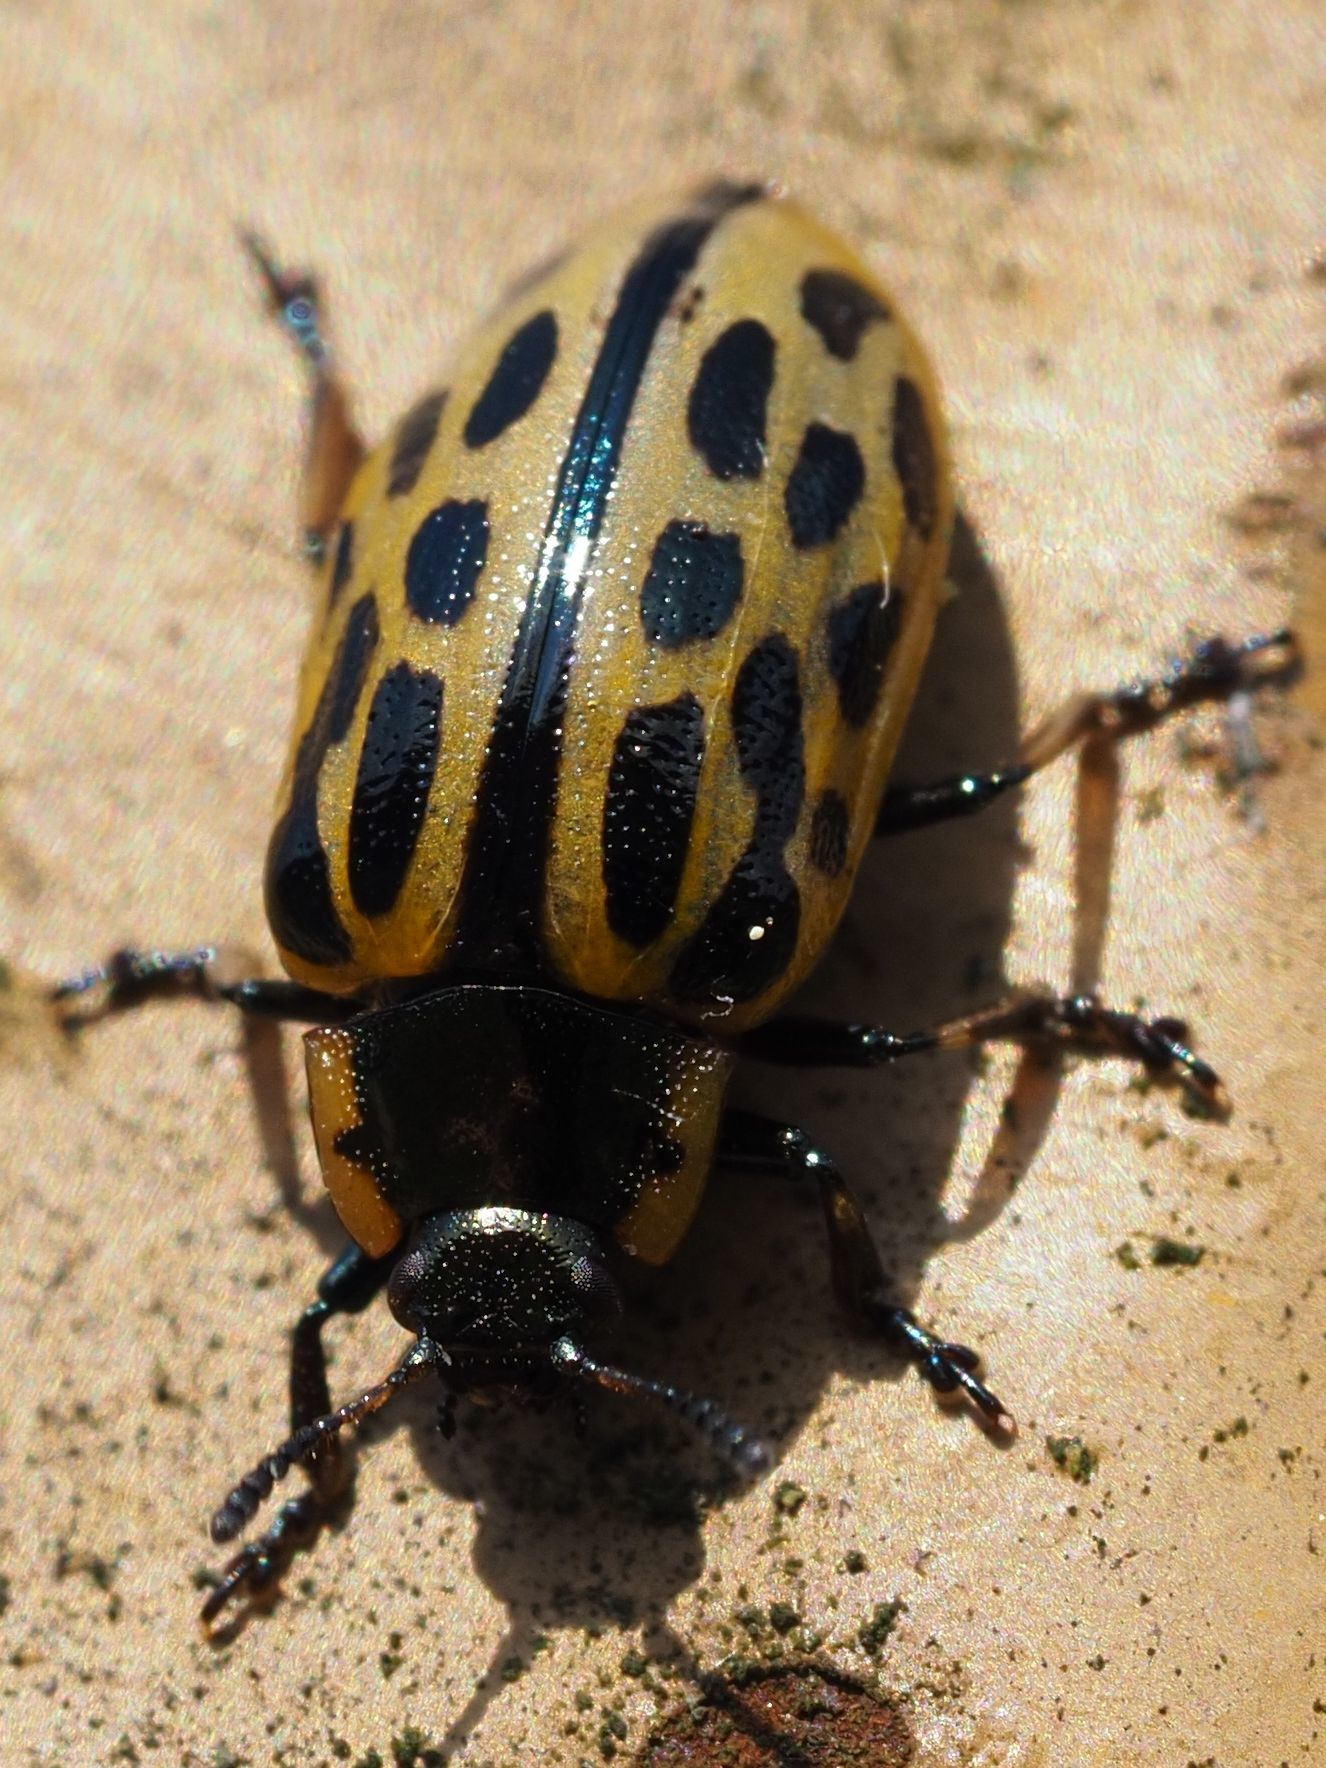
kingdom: Animalia
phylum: Arthropoda
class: Insecta
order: Coleoptera
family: Chrysomelidae
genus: Chrysomela
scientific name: Chrysomela vigintipunctata
